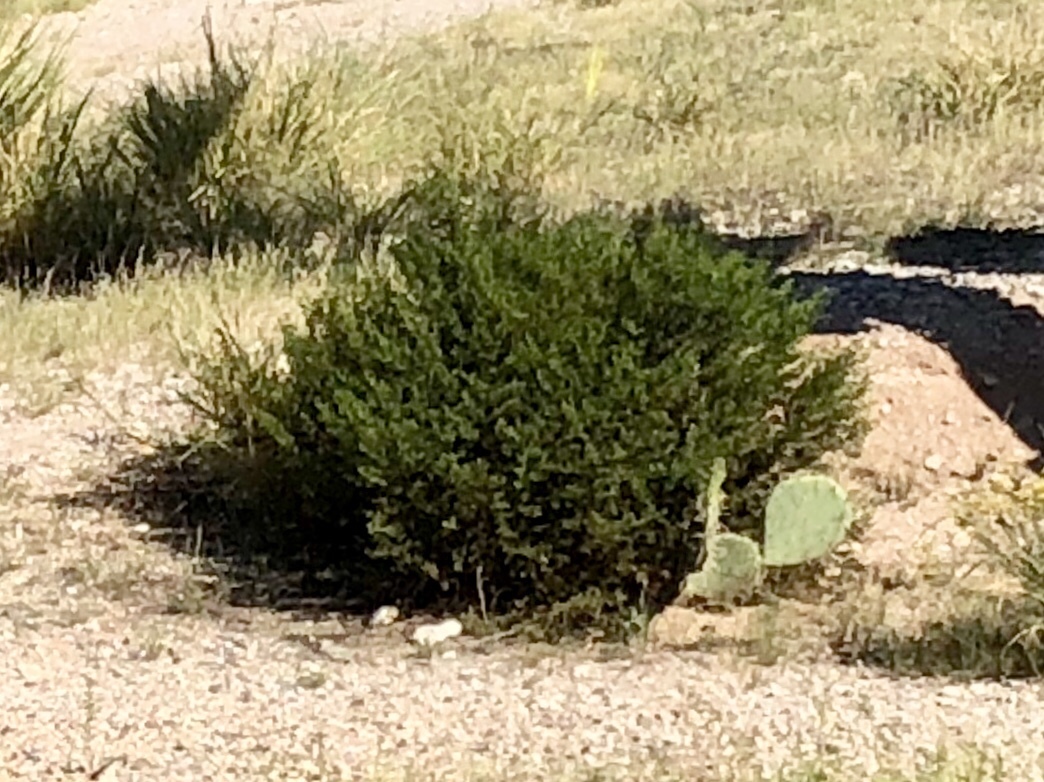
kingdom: Plantae
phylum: Tracheophyta
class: Magnoliopsida
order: Zygophyllales
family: Zygophyllaceae
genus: Larrea
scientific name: Larrea tridentata
